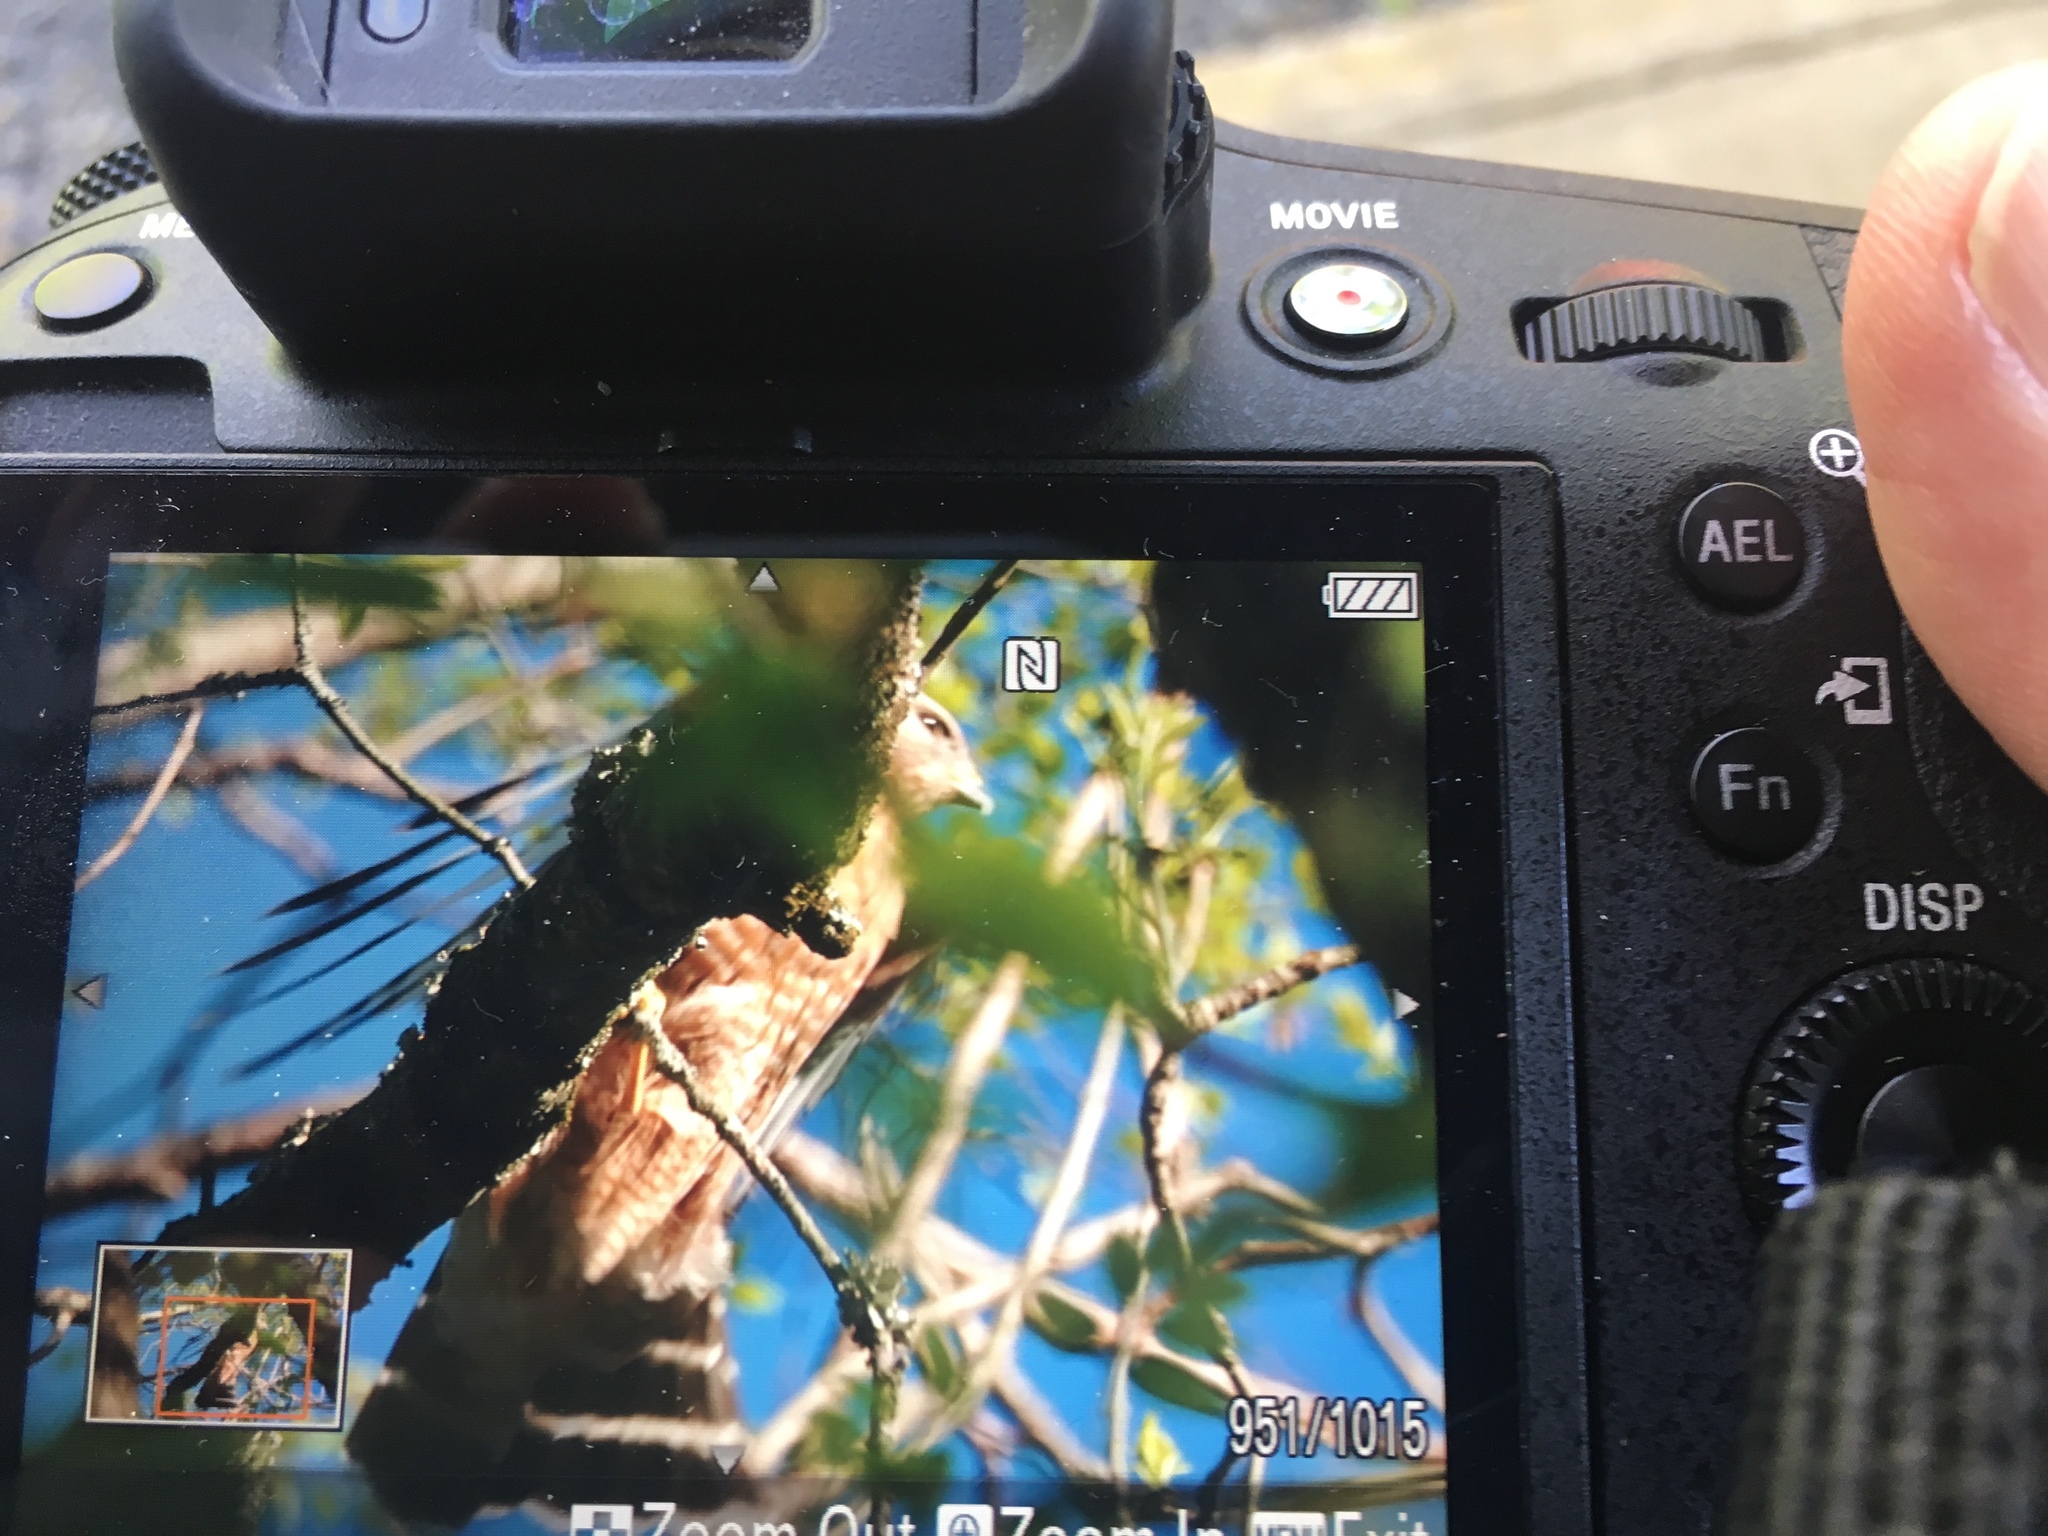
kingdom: Animalia
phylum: Chordata
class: Aves
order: Accipitriformes
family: Accipitridae
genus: Buteo
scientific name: Buteo lineatus
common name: Red-shouldered hawk
